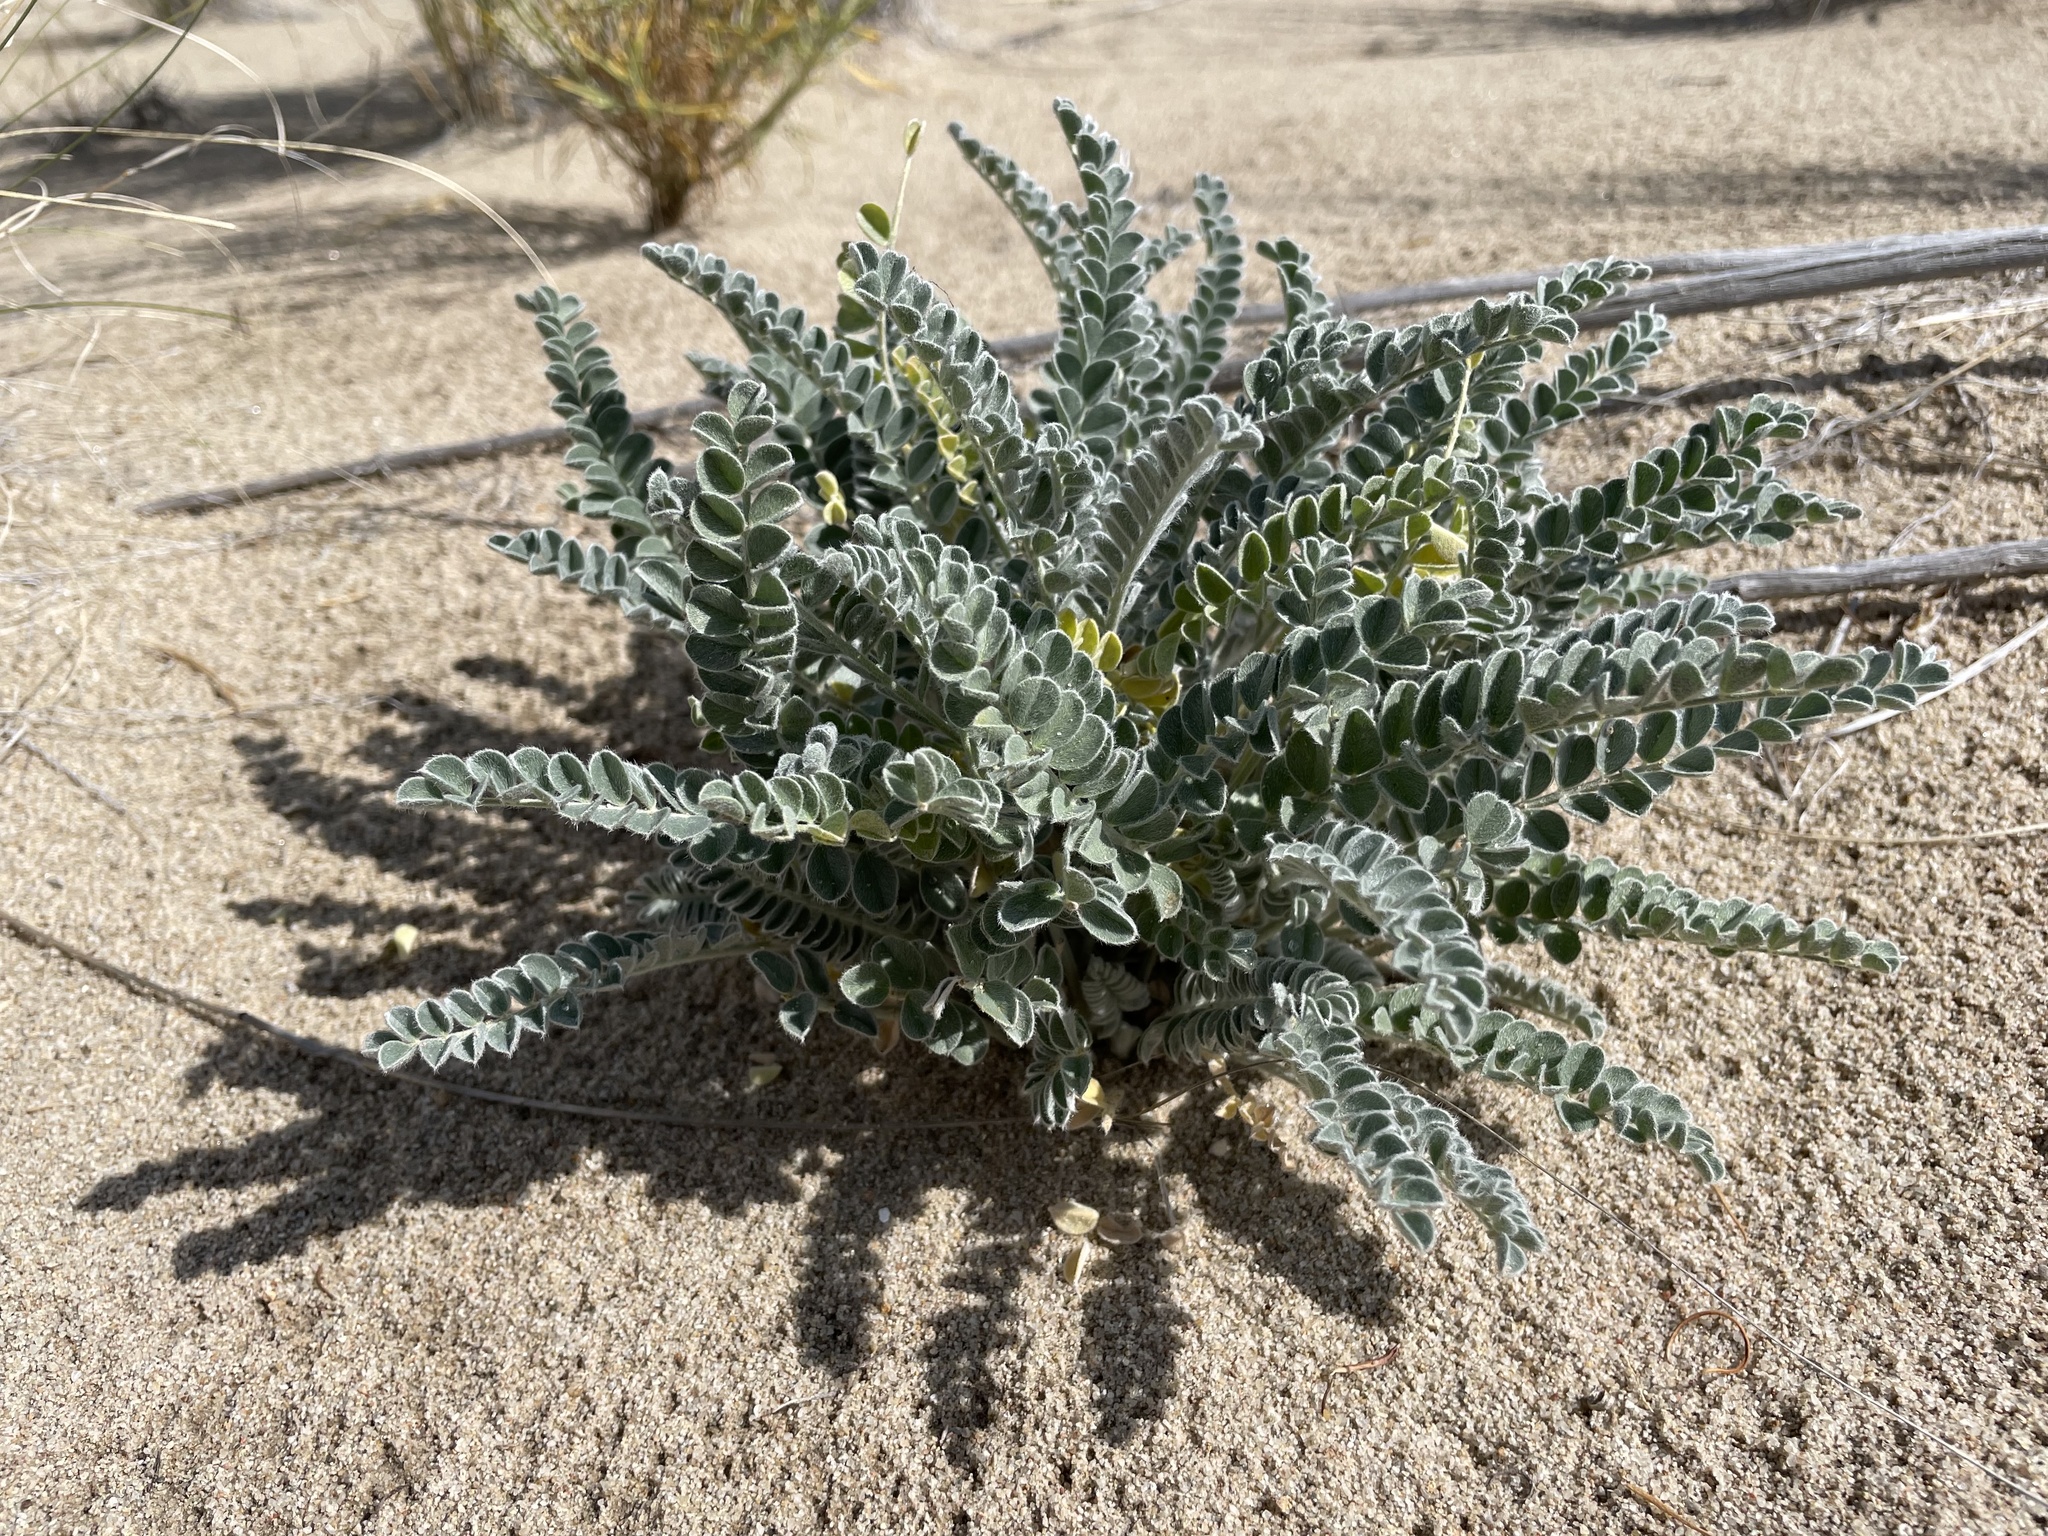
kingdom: Plantae
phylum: Tracheophyta
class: Magnoliopsida
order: Fabales
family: Fabaceae
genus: Astragalus
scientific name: Astragalus mollissimus
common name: Woolly locoweed
